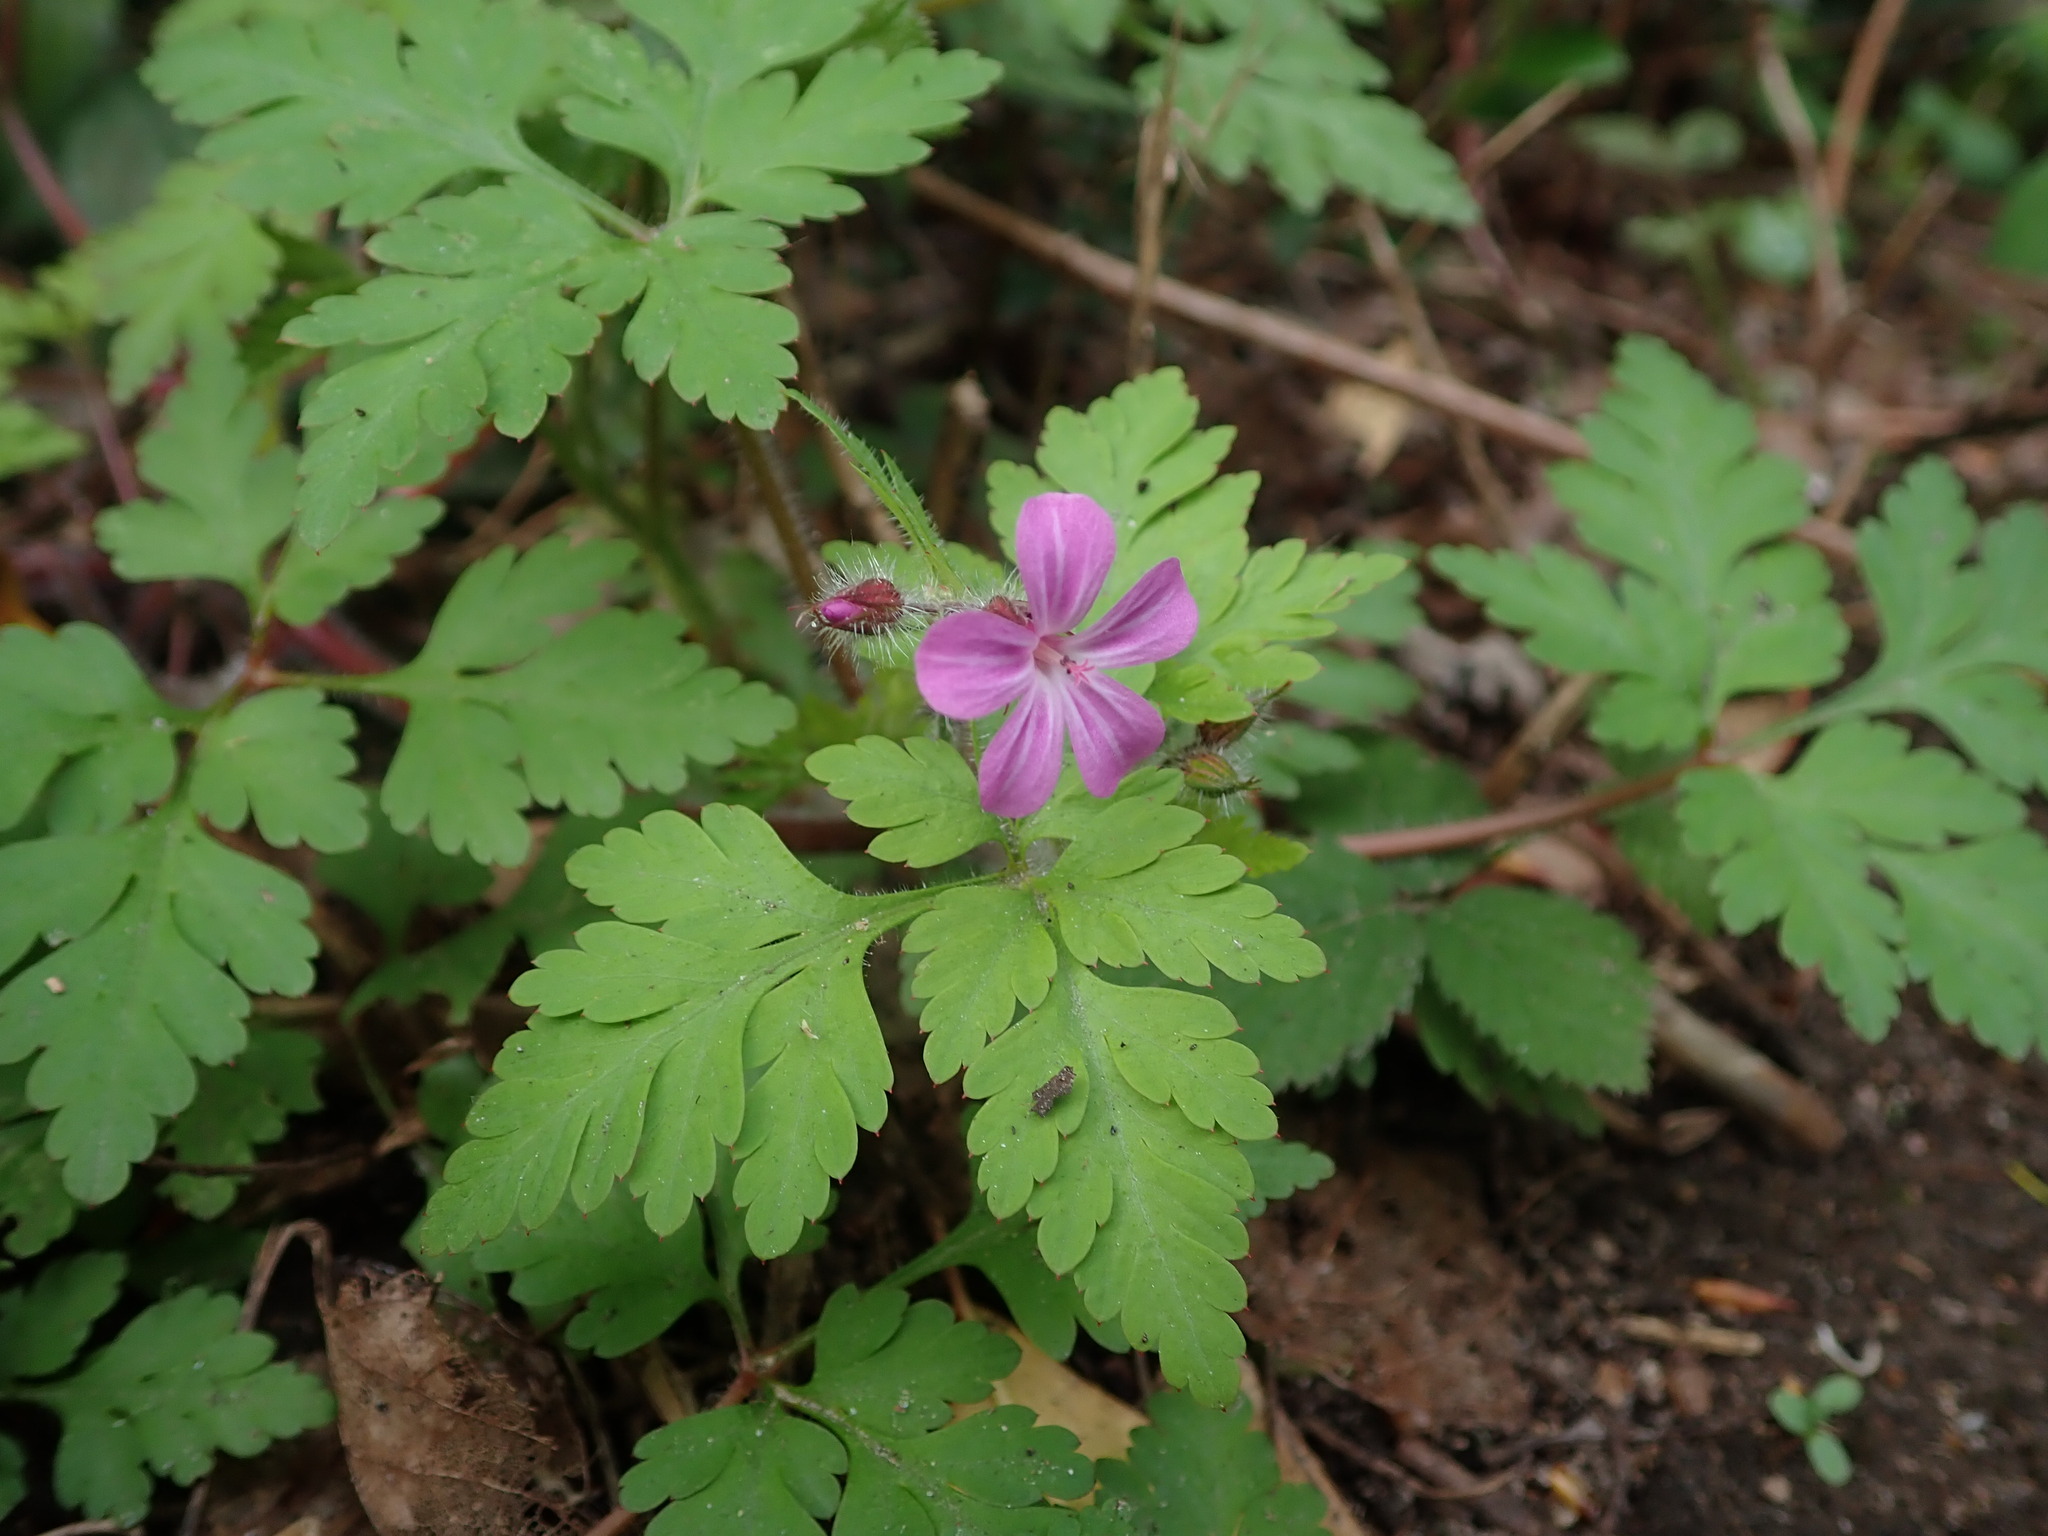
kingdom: Plantae
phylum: Tracheophyta
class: Magnoliopsida
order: Geraniales
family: Geraniaceae
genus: Geranium
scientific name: Geranium robertianum
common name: Herb-robert
